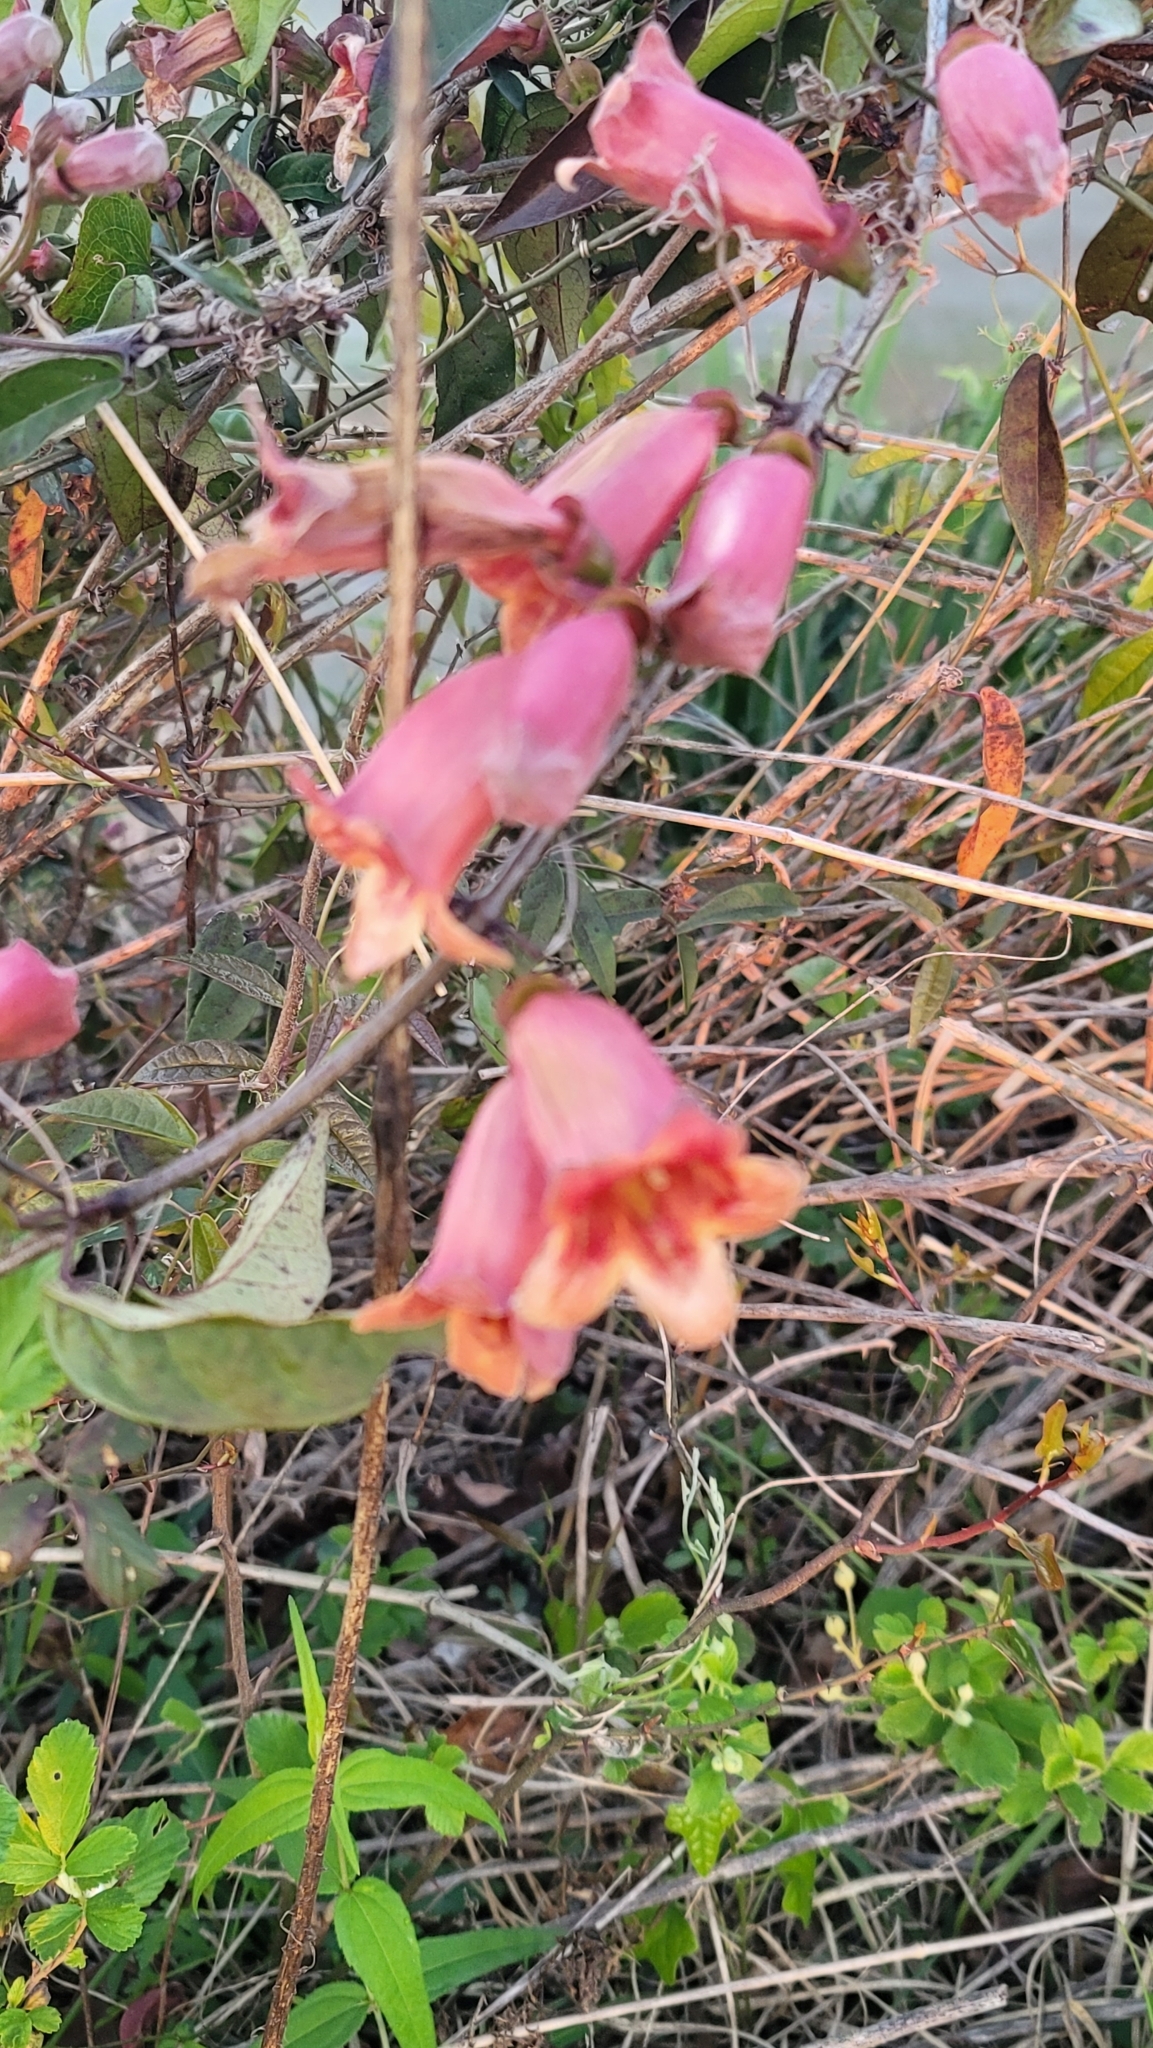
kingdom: Plantae
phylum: Tracheophyta
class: Magnoliopsida
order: Lamiales
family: Bignoniaceae
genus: Bignonia
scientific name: Bignonia capreolata
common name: Crossvine
